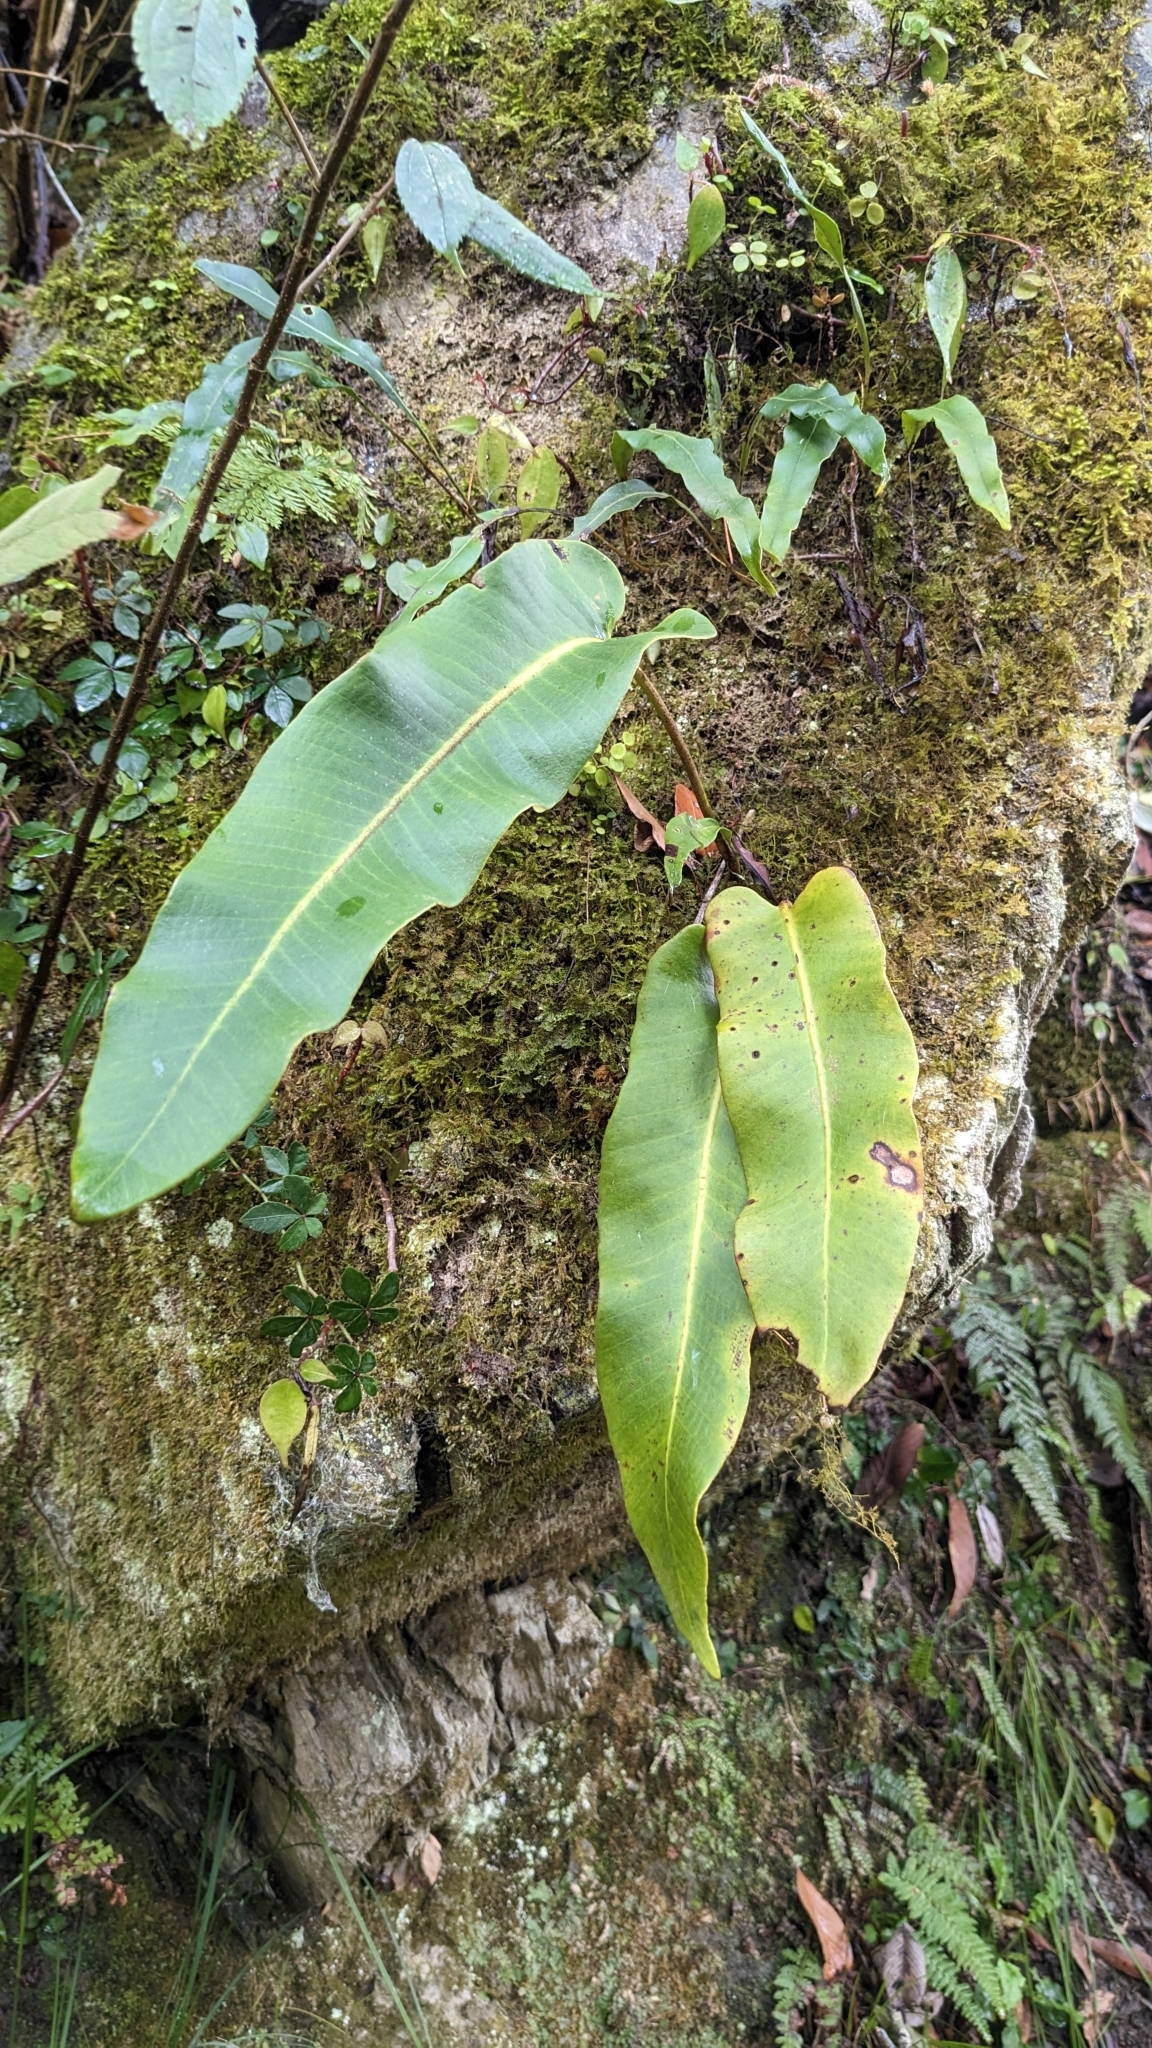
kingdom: Plantae
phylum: Tracheophyta
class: Polypodiopsida
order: Polypodiales
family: Polypodiaceae
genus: Pyrrosia
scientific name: Pyrrosia sheareri
